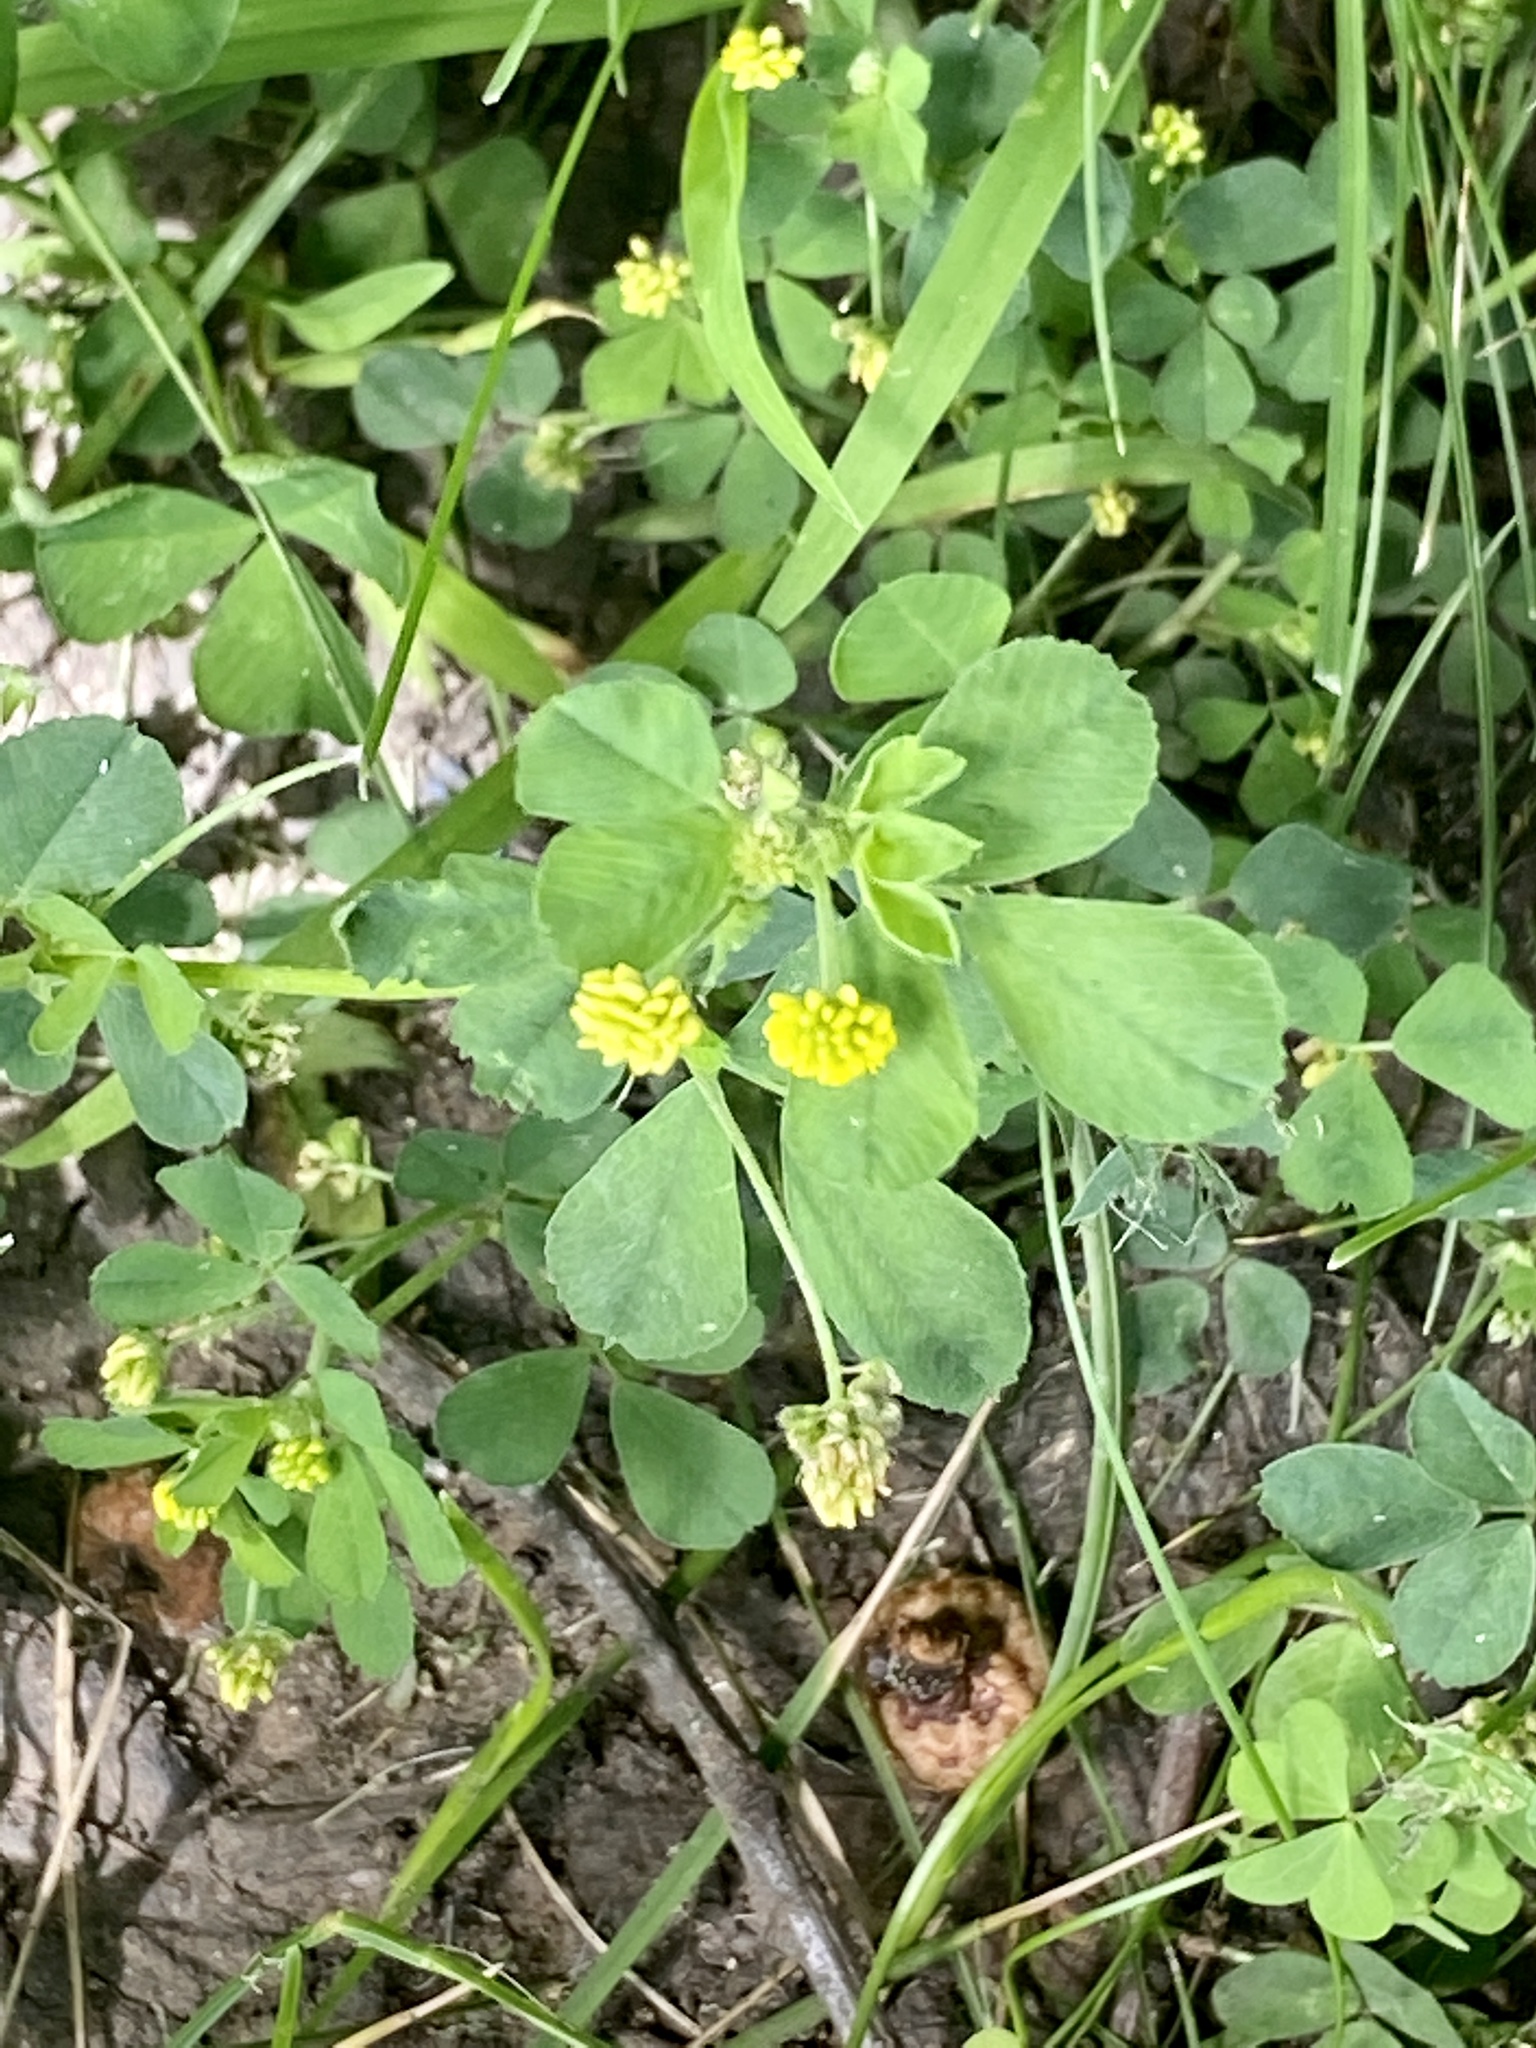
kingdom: Plantae
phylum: Tracheophyta
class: Magnoliopsida
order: Fabales
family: Fabaceae
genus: Medicago
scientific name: Medicago lupulina
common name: Black medick
